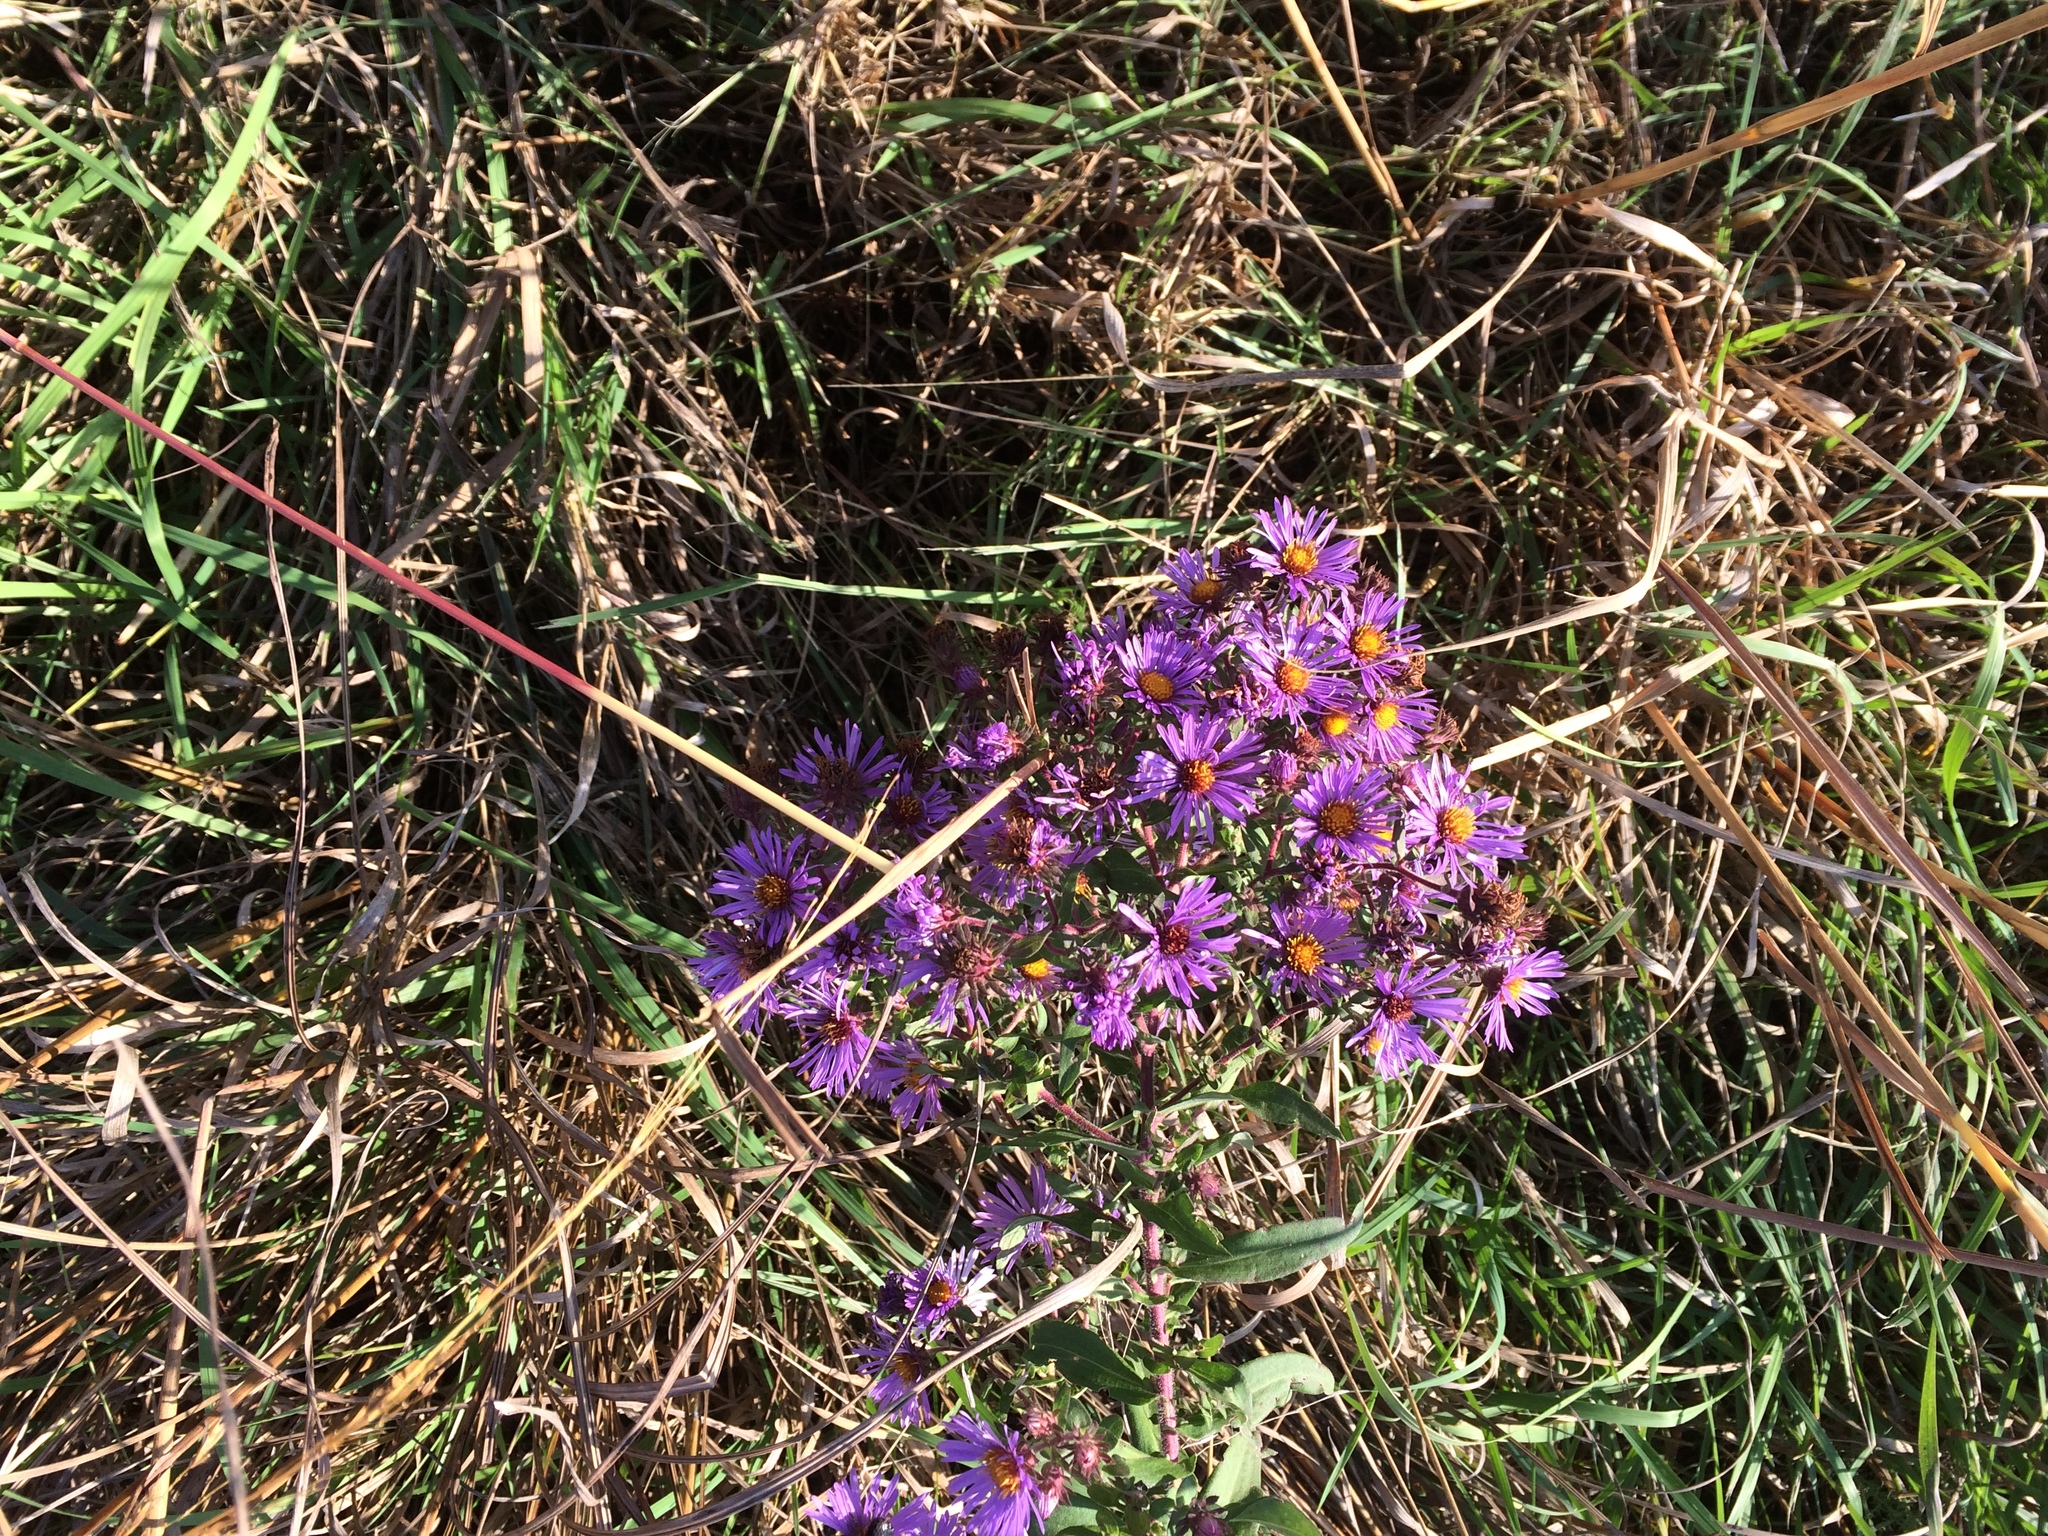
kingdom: Plantae
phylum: Tracheophyta
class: Magnoliopsida
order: Asterales
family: Asteraceae
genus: Symphyotrichum
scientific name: Symphyotrichum novae-angliae
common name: Michaelmas daisy
